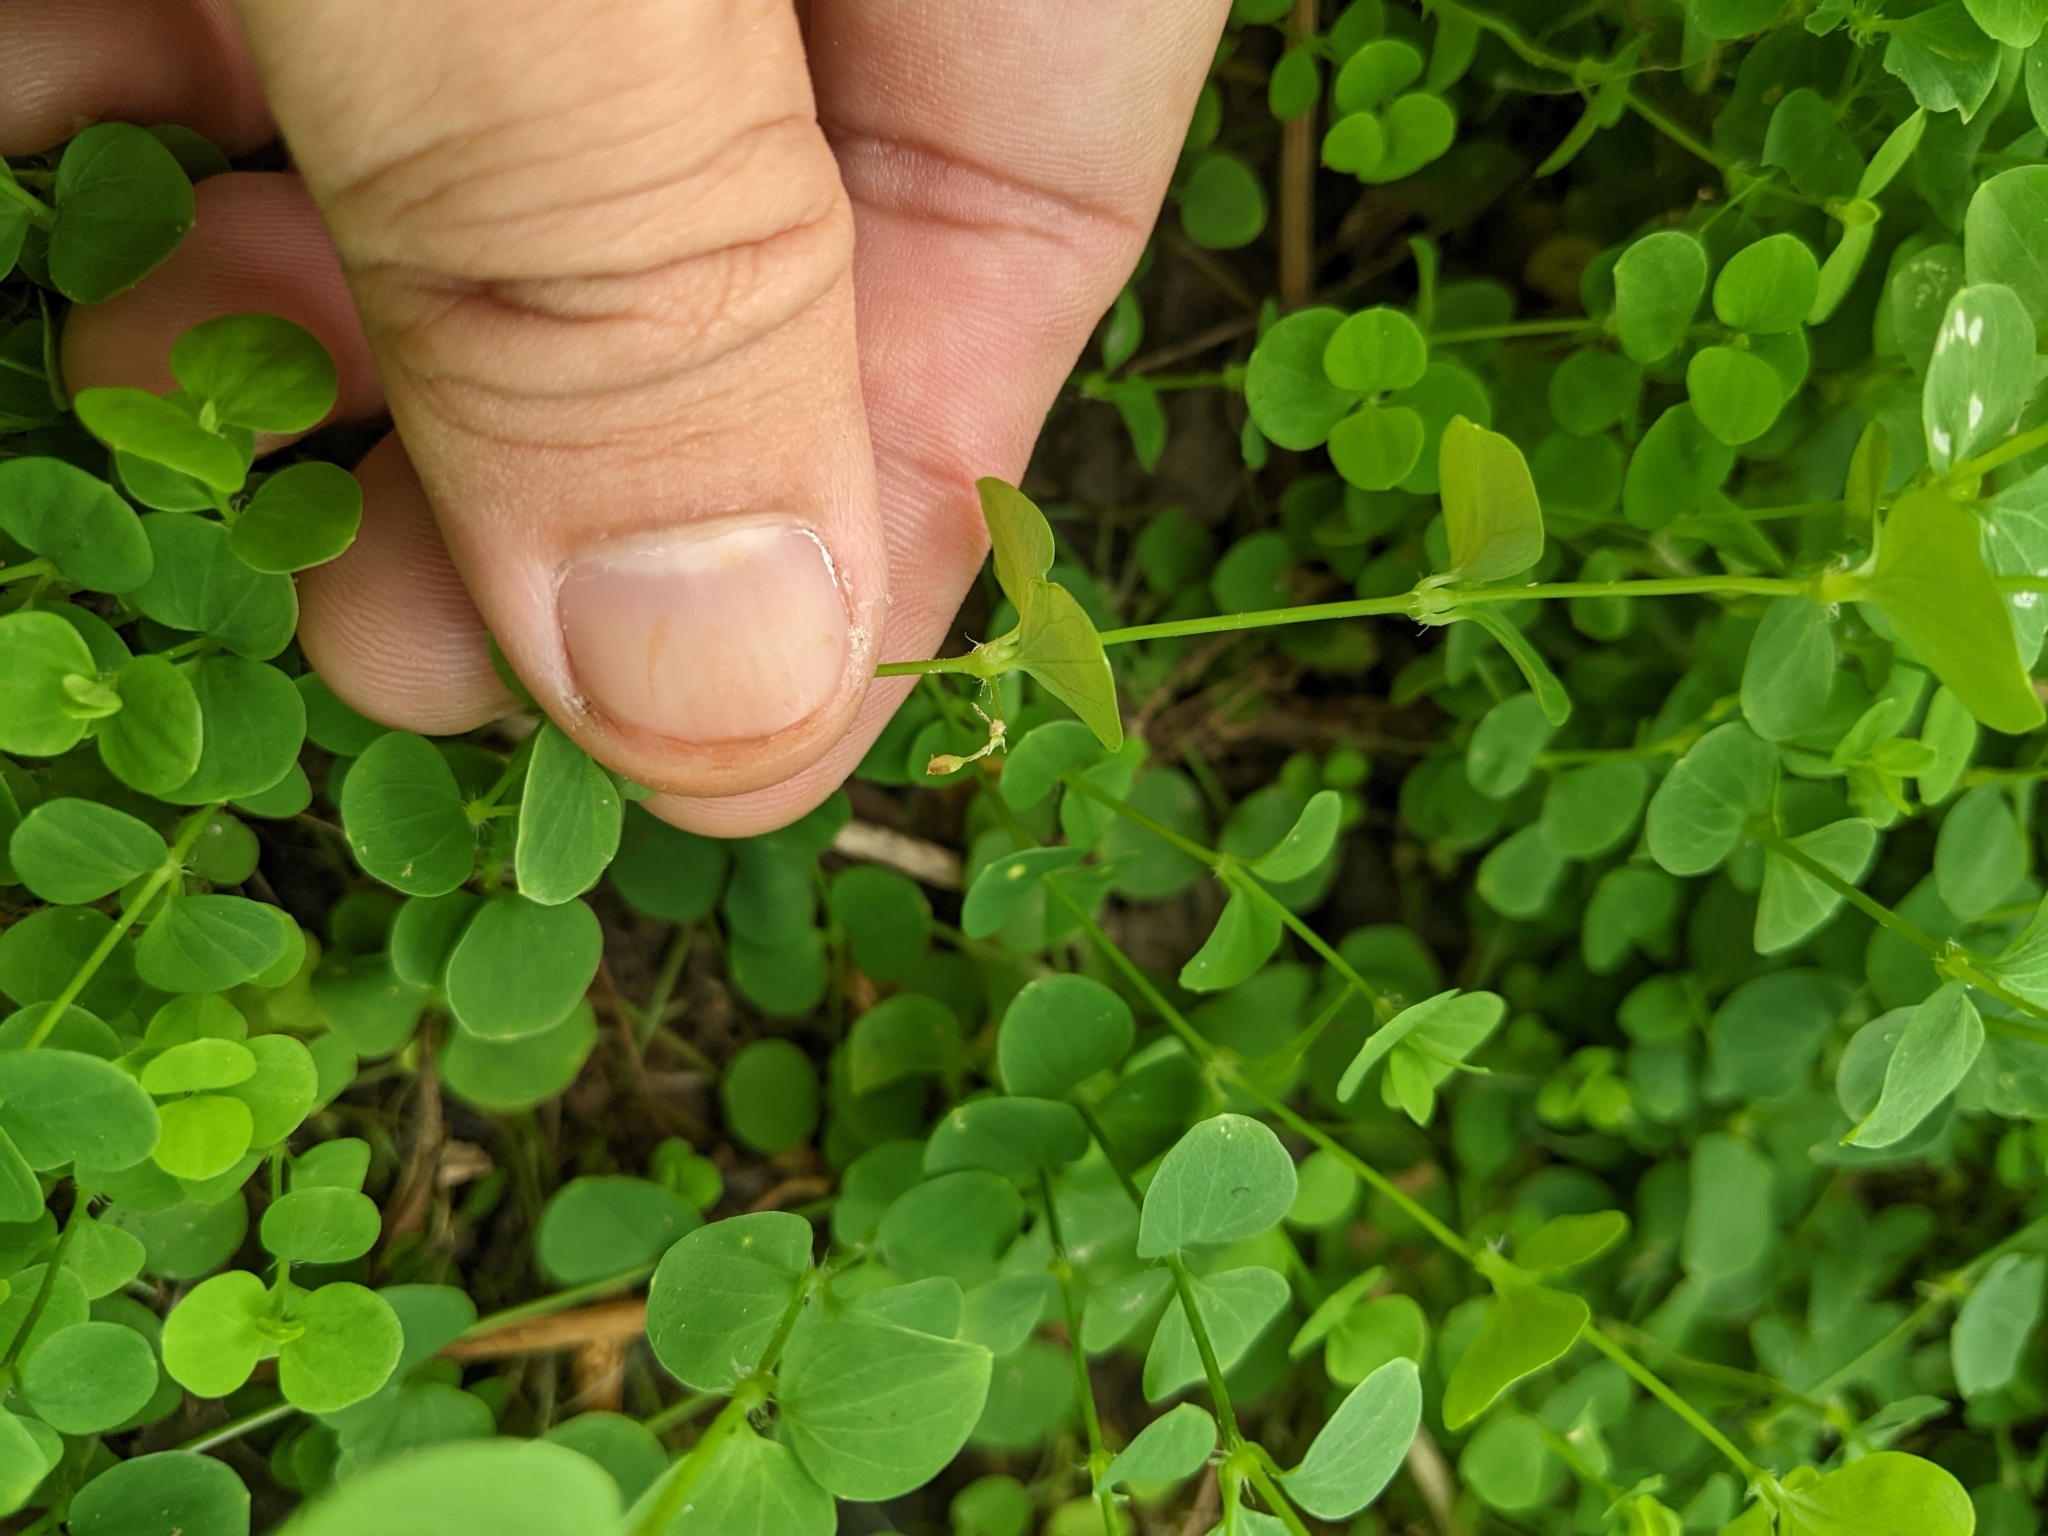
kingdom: Plantae
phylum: Tracheophyta
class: Magnoliopsida
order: Caryophyllales
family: Caryophyllaceae
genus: Drymaria
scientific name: Drymaria cordata
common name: Whitesnow
